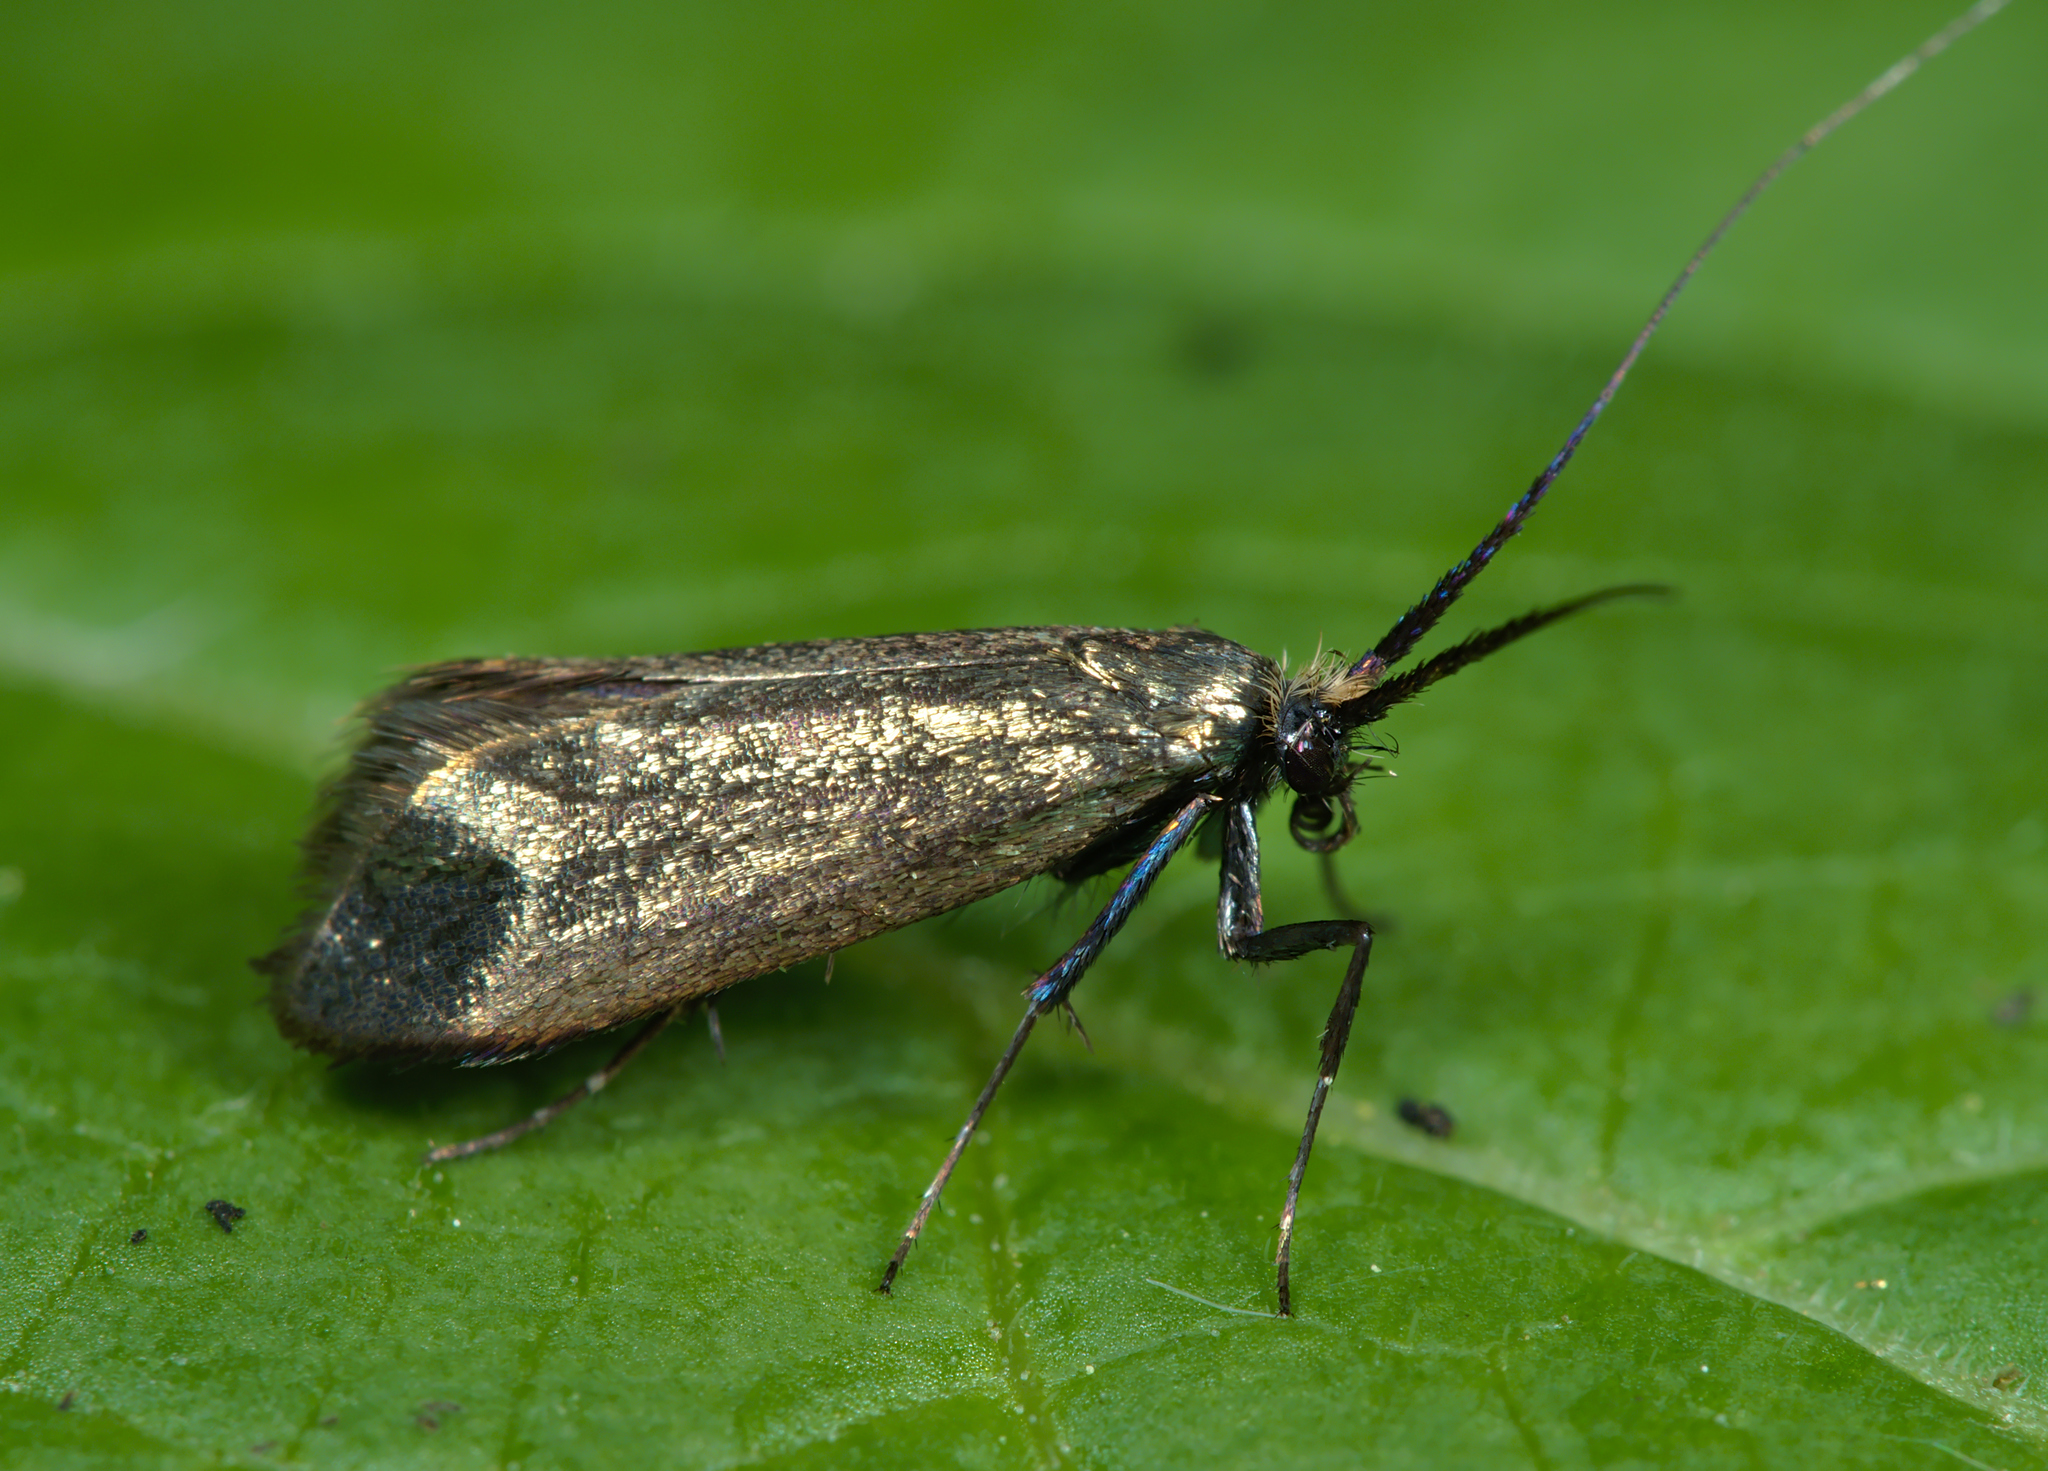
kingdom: Animalia
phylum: Arthropoda
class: Insecta
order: Lepidoptera
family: Adelidae
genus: Adela
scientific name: Adela viridella
